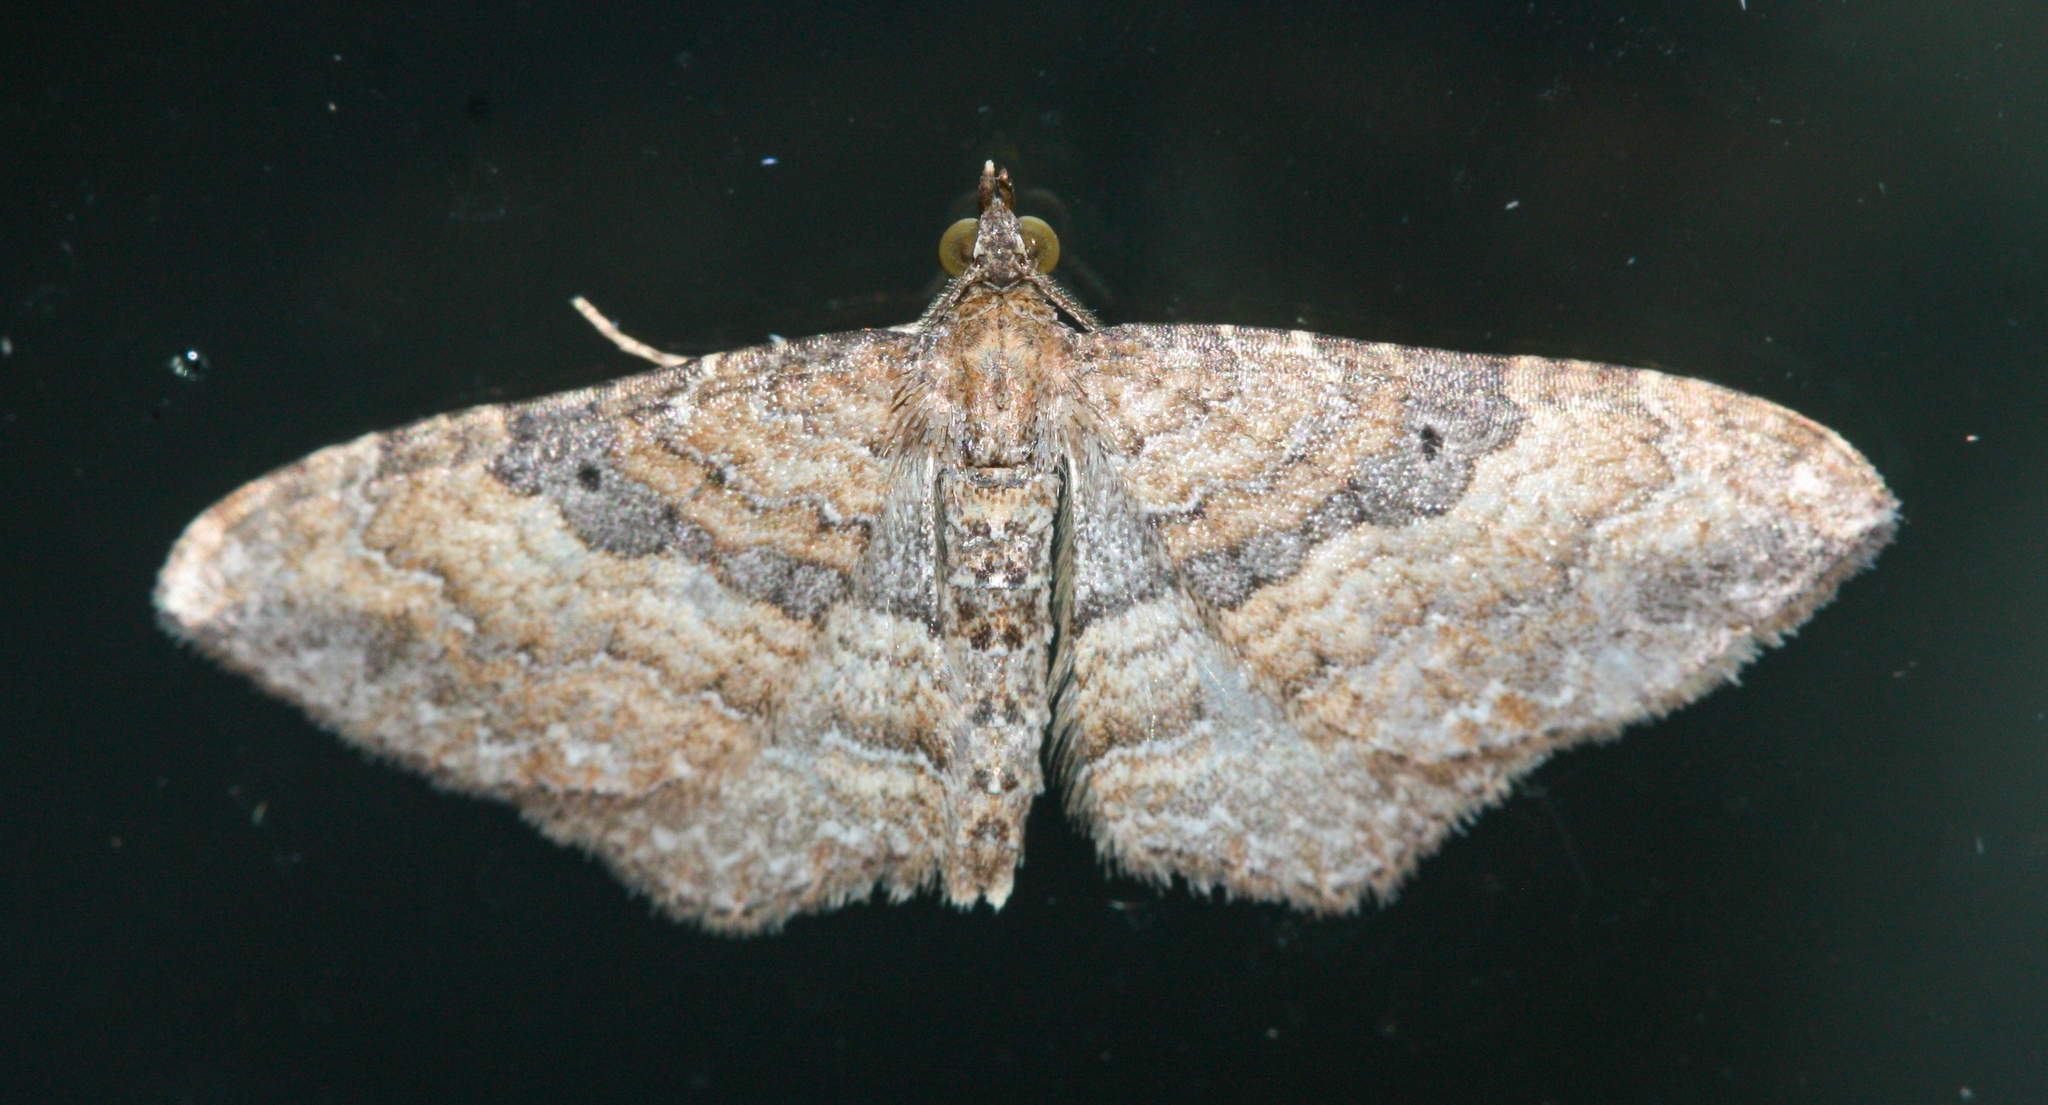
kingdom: Animalia
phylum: Arthropoda
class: Insecta
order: Lepidoptera
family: Geometridae
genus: Orthonama
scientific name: Orthonama obstipata
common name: The gem
